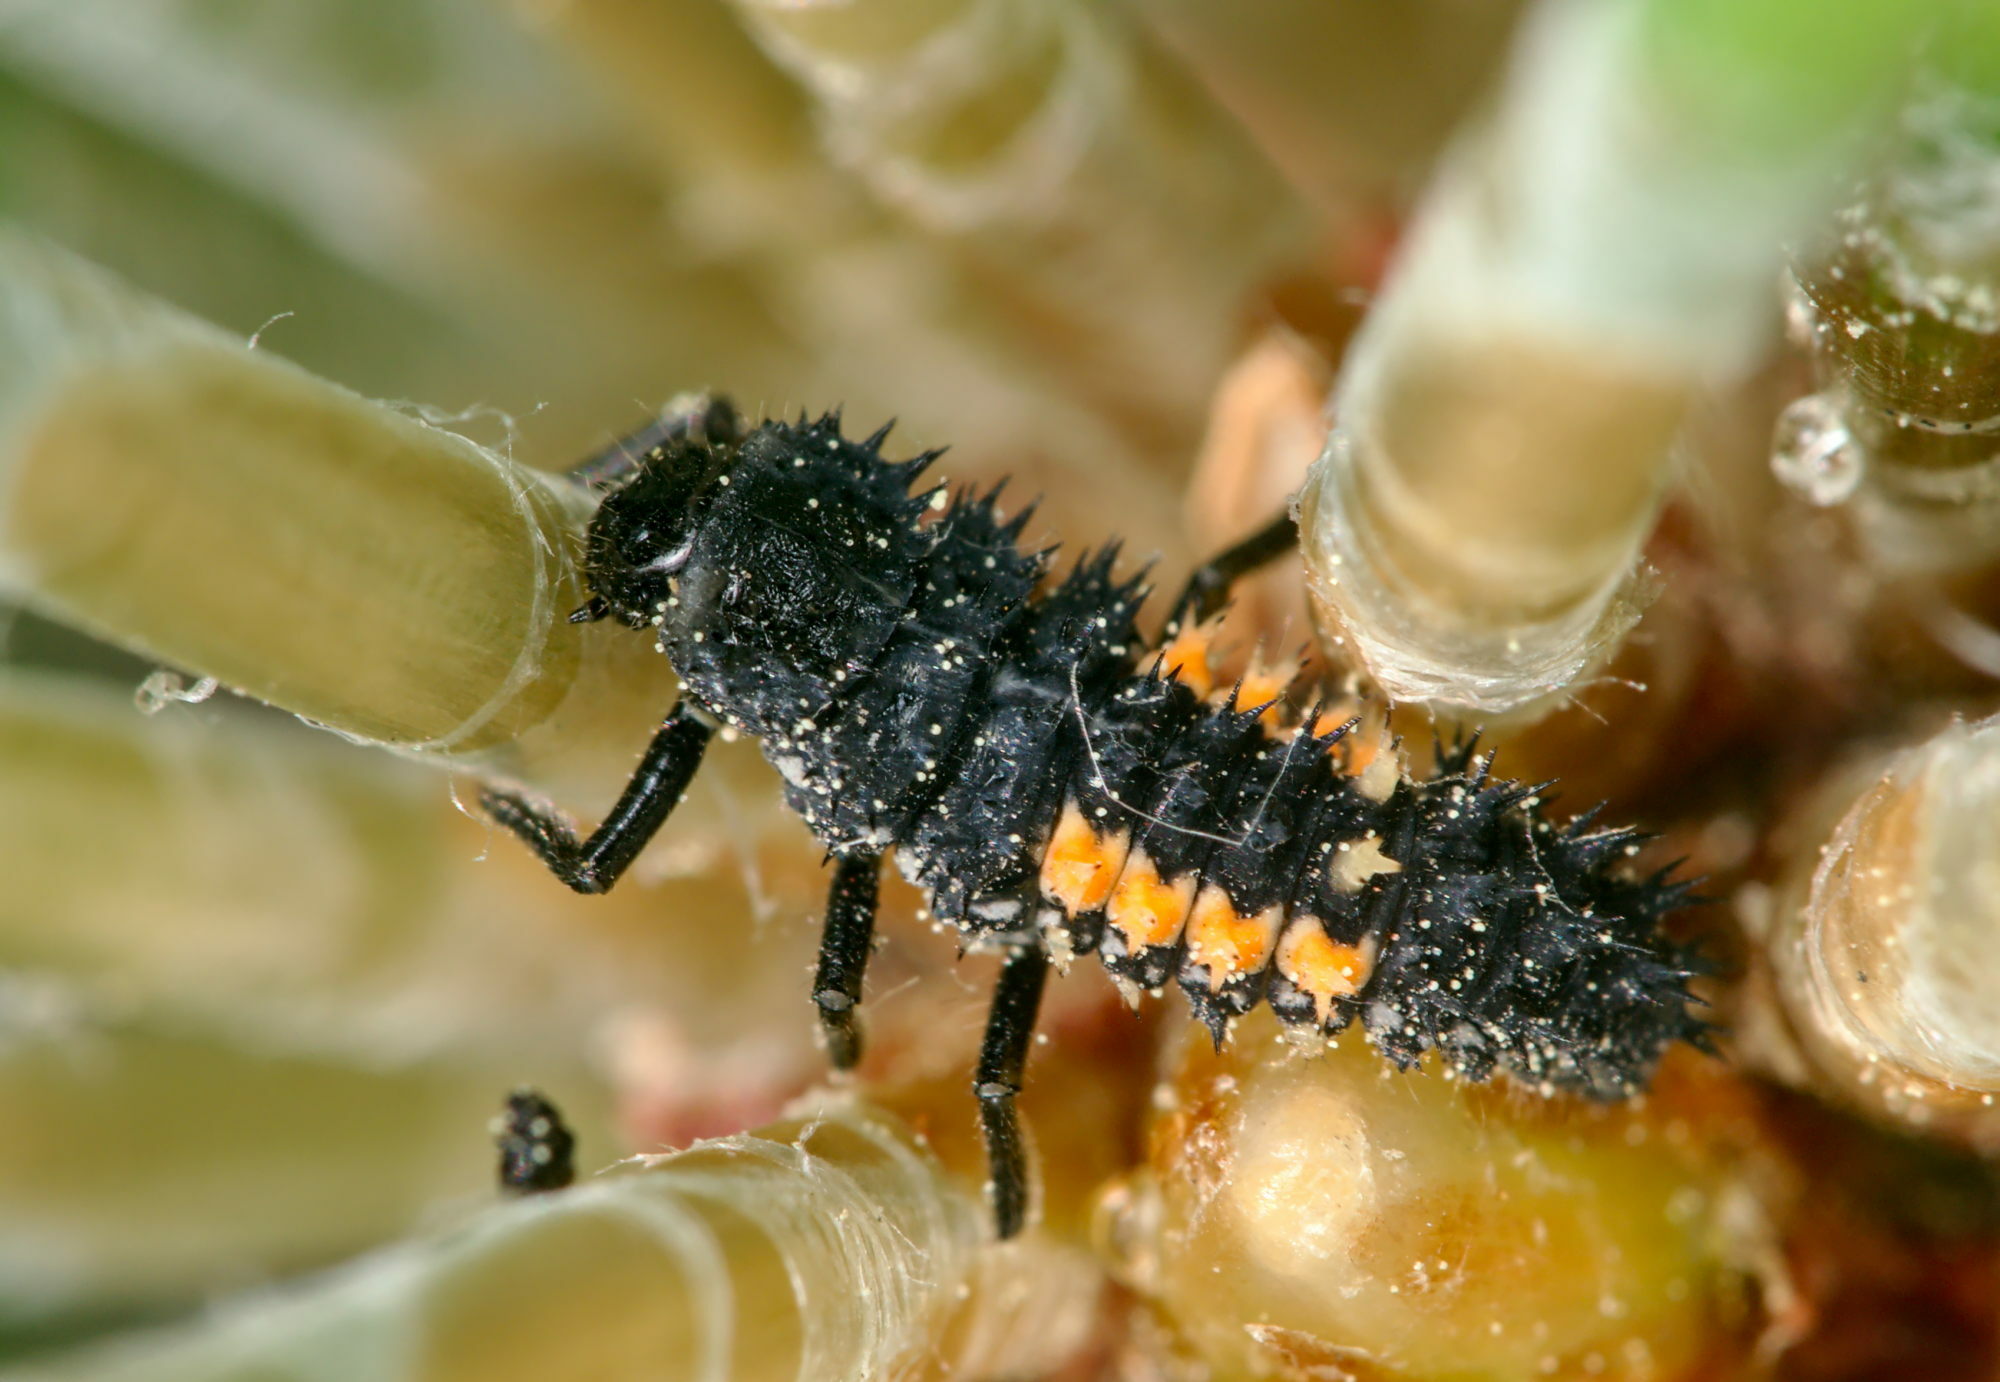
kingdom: Animalia
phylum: Arthropoda
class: Insecta
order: Coleoptera
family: Coccinellidae
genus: Harmonia
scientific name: Harmonia quadripunctata
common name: Cream-streaked ladybird
